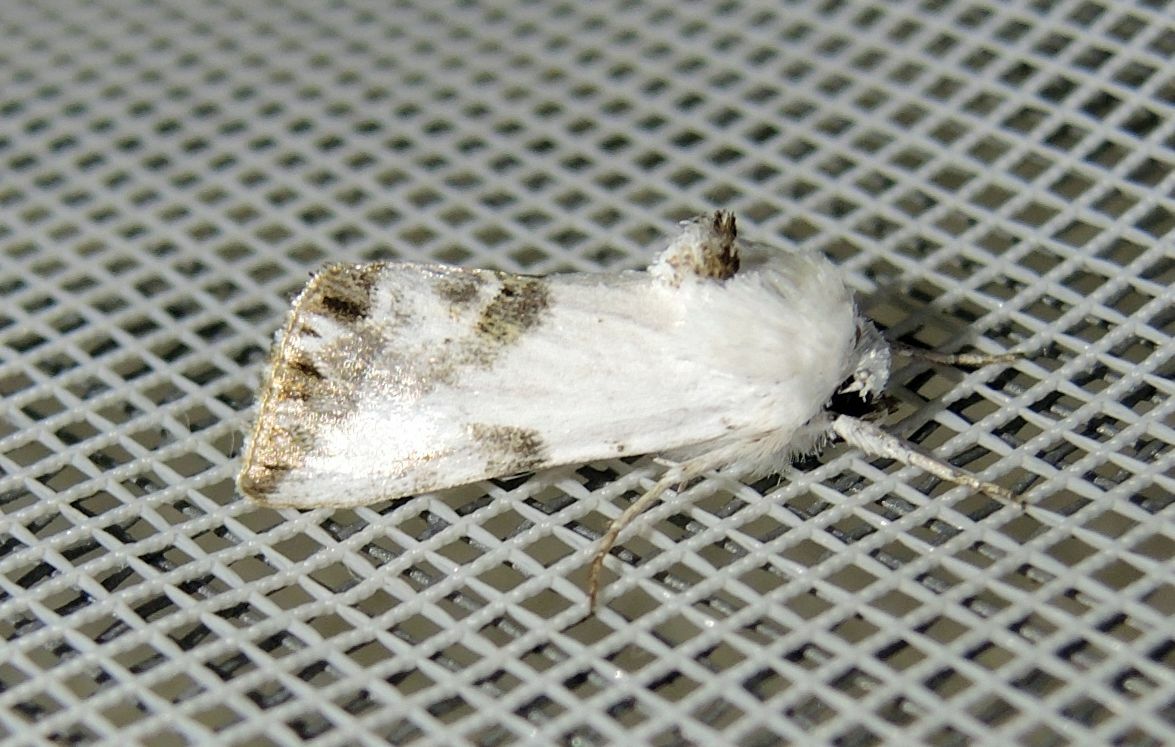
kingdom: Animalia
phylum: Arthropoda
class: Insecta
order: Lepidoptera
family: Noctuidae
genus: Calophasia
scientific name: Calophasia opalina
